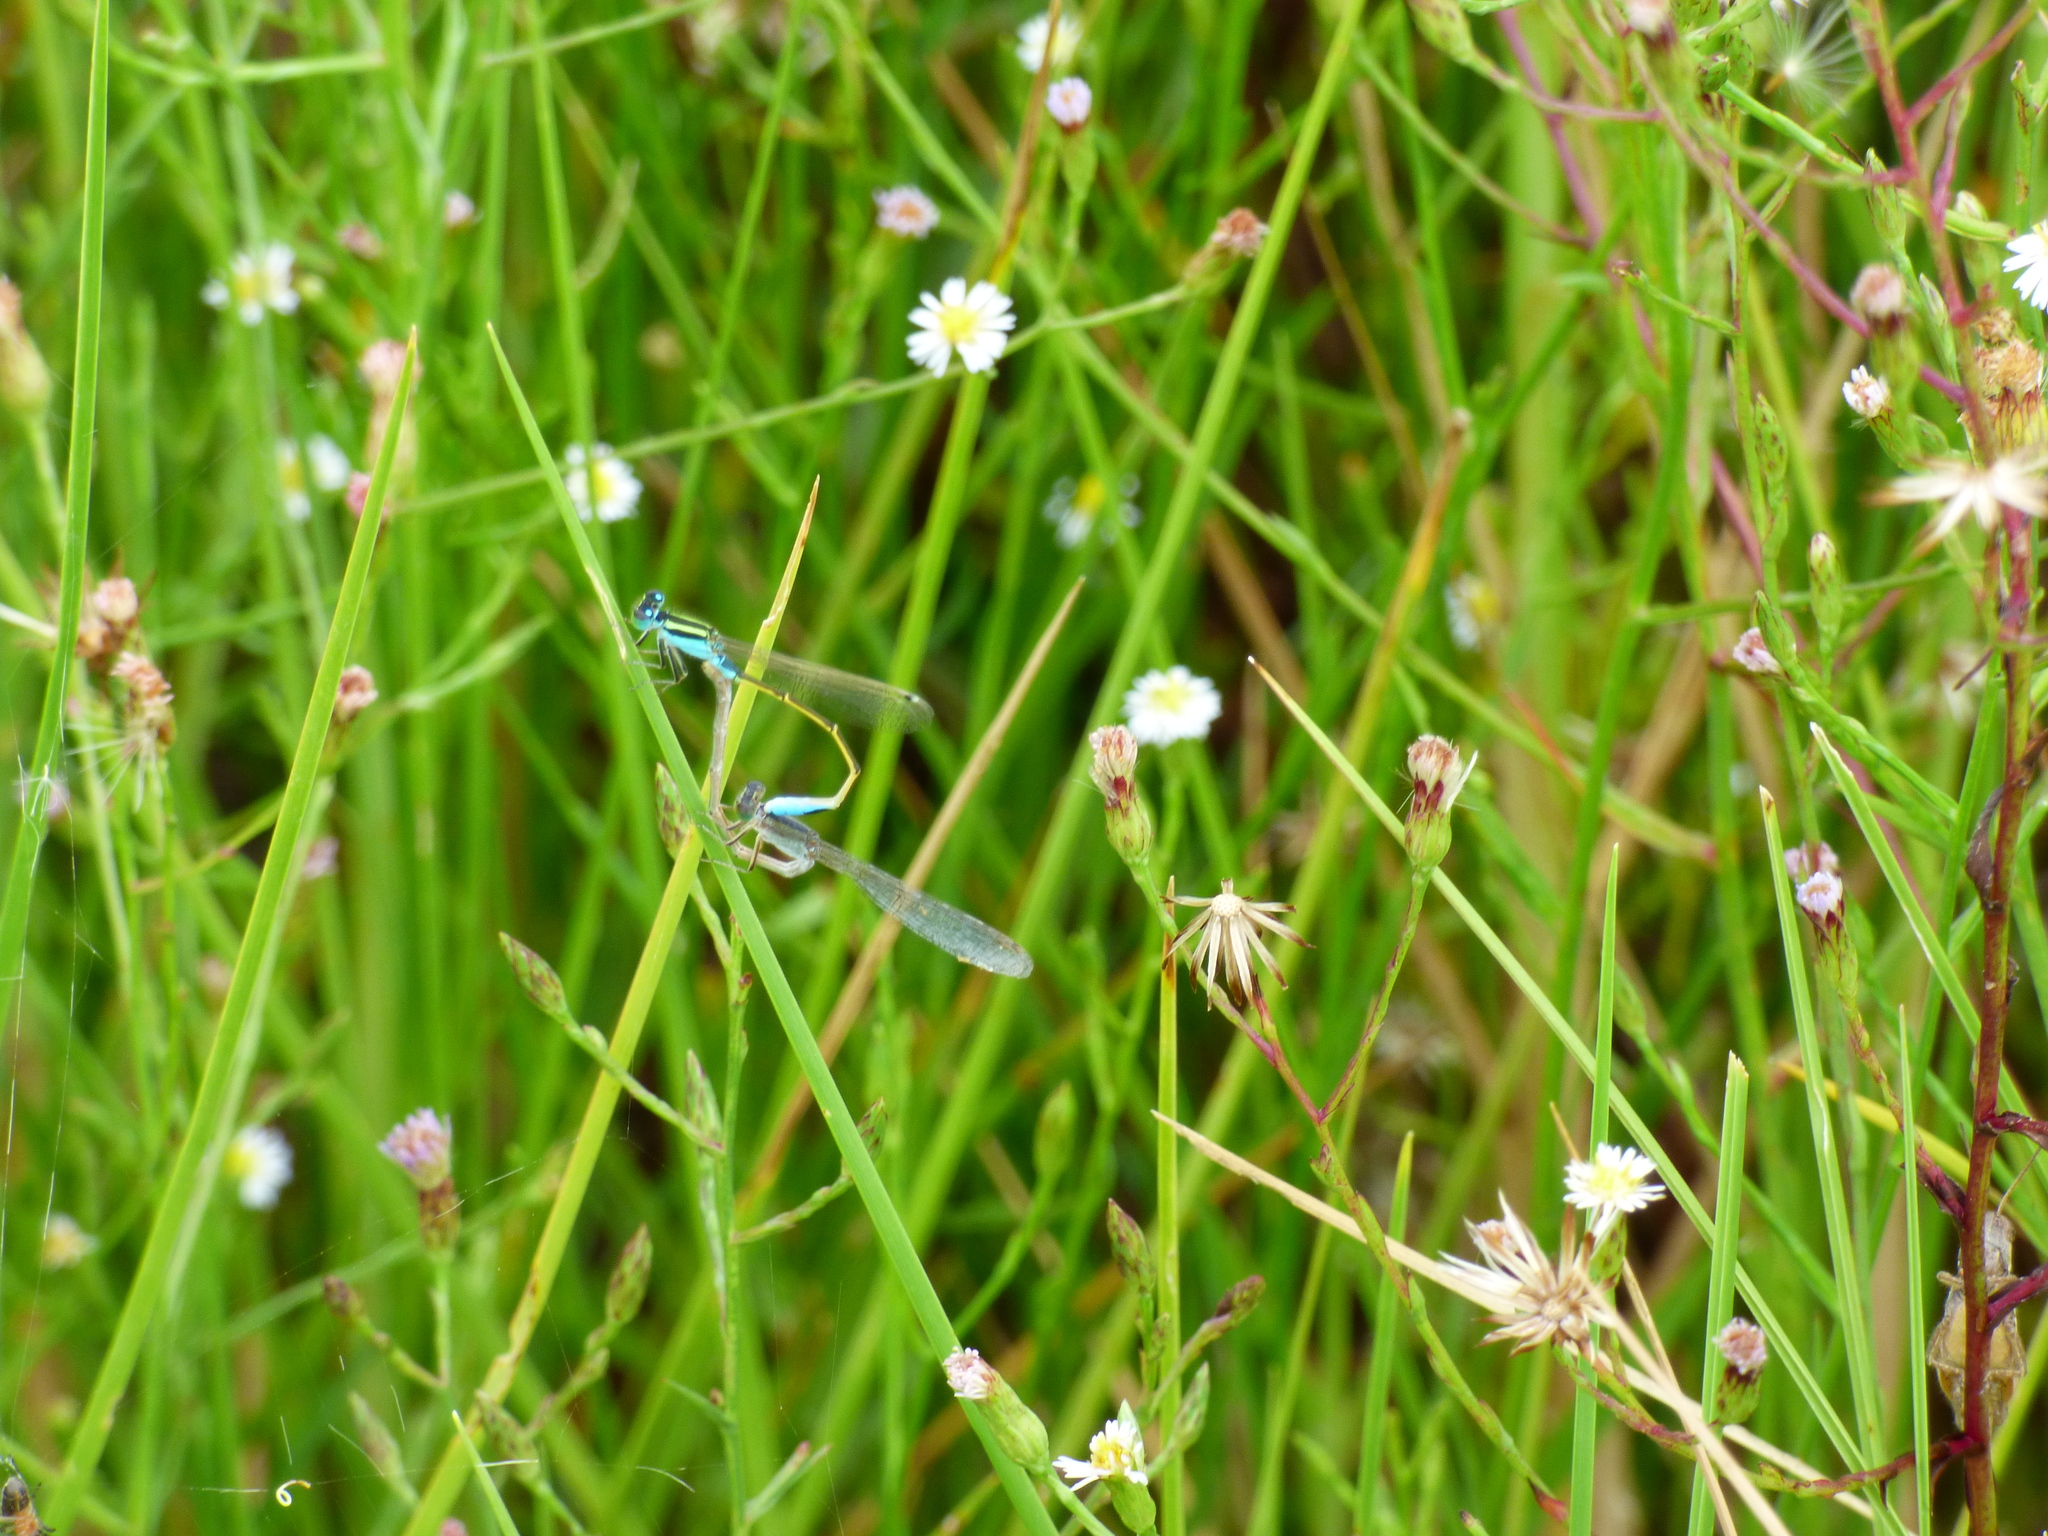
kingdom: Animalia
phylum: Arthropoda
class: Insecta
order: Odonata
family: Coenagrionidae
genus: Ischnura
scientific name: Ischnura fluviatilis
